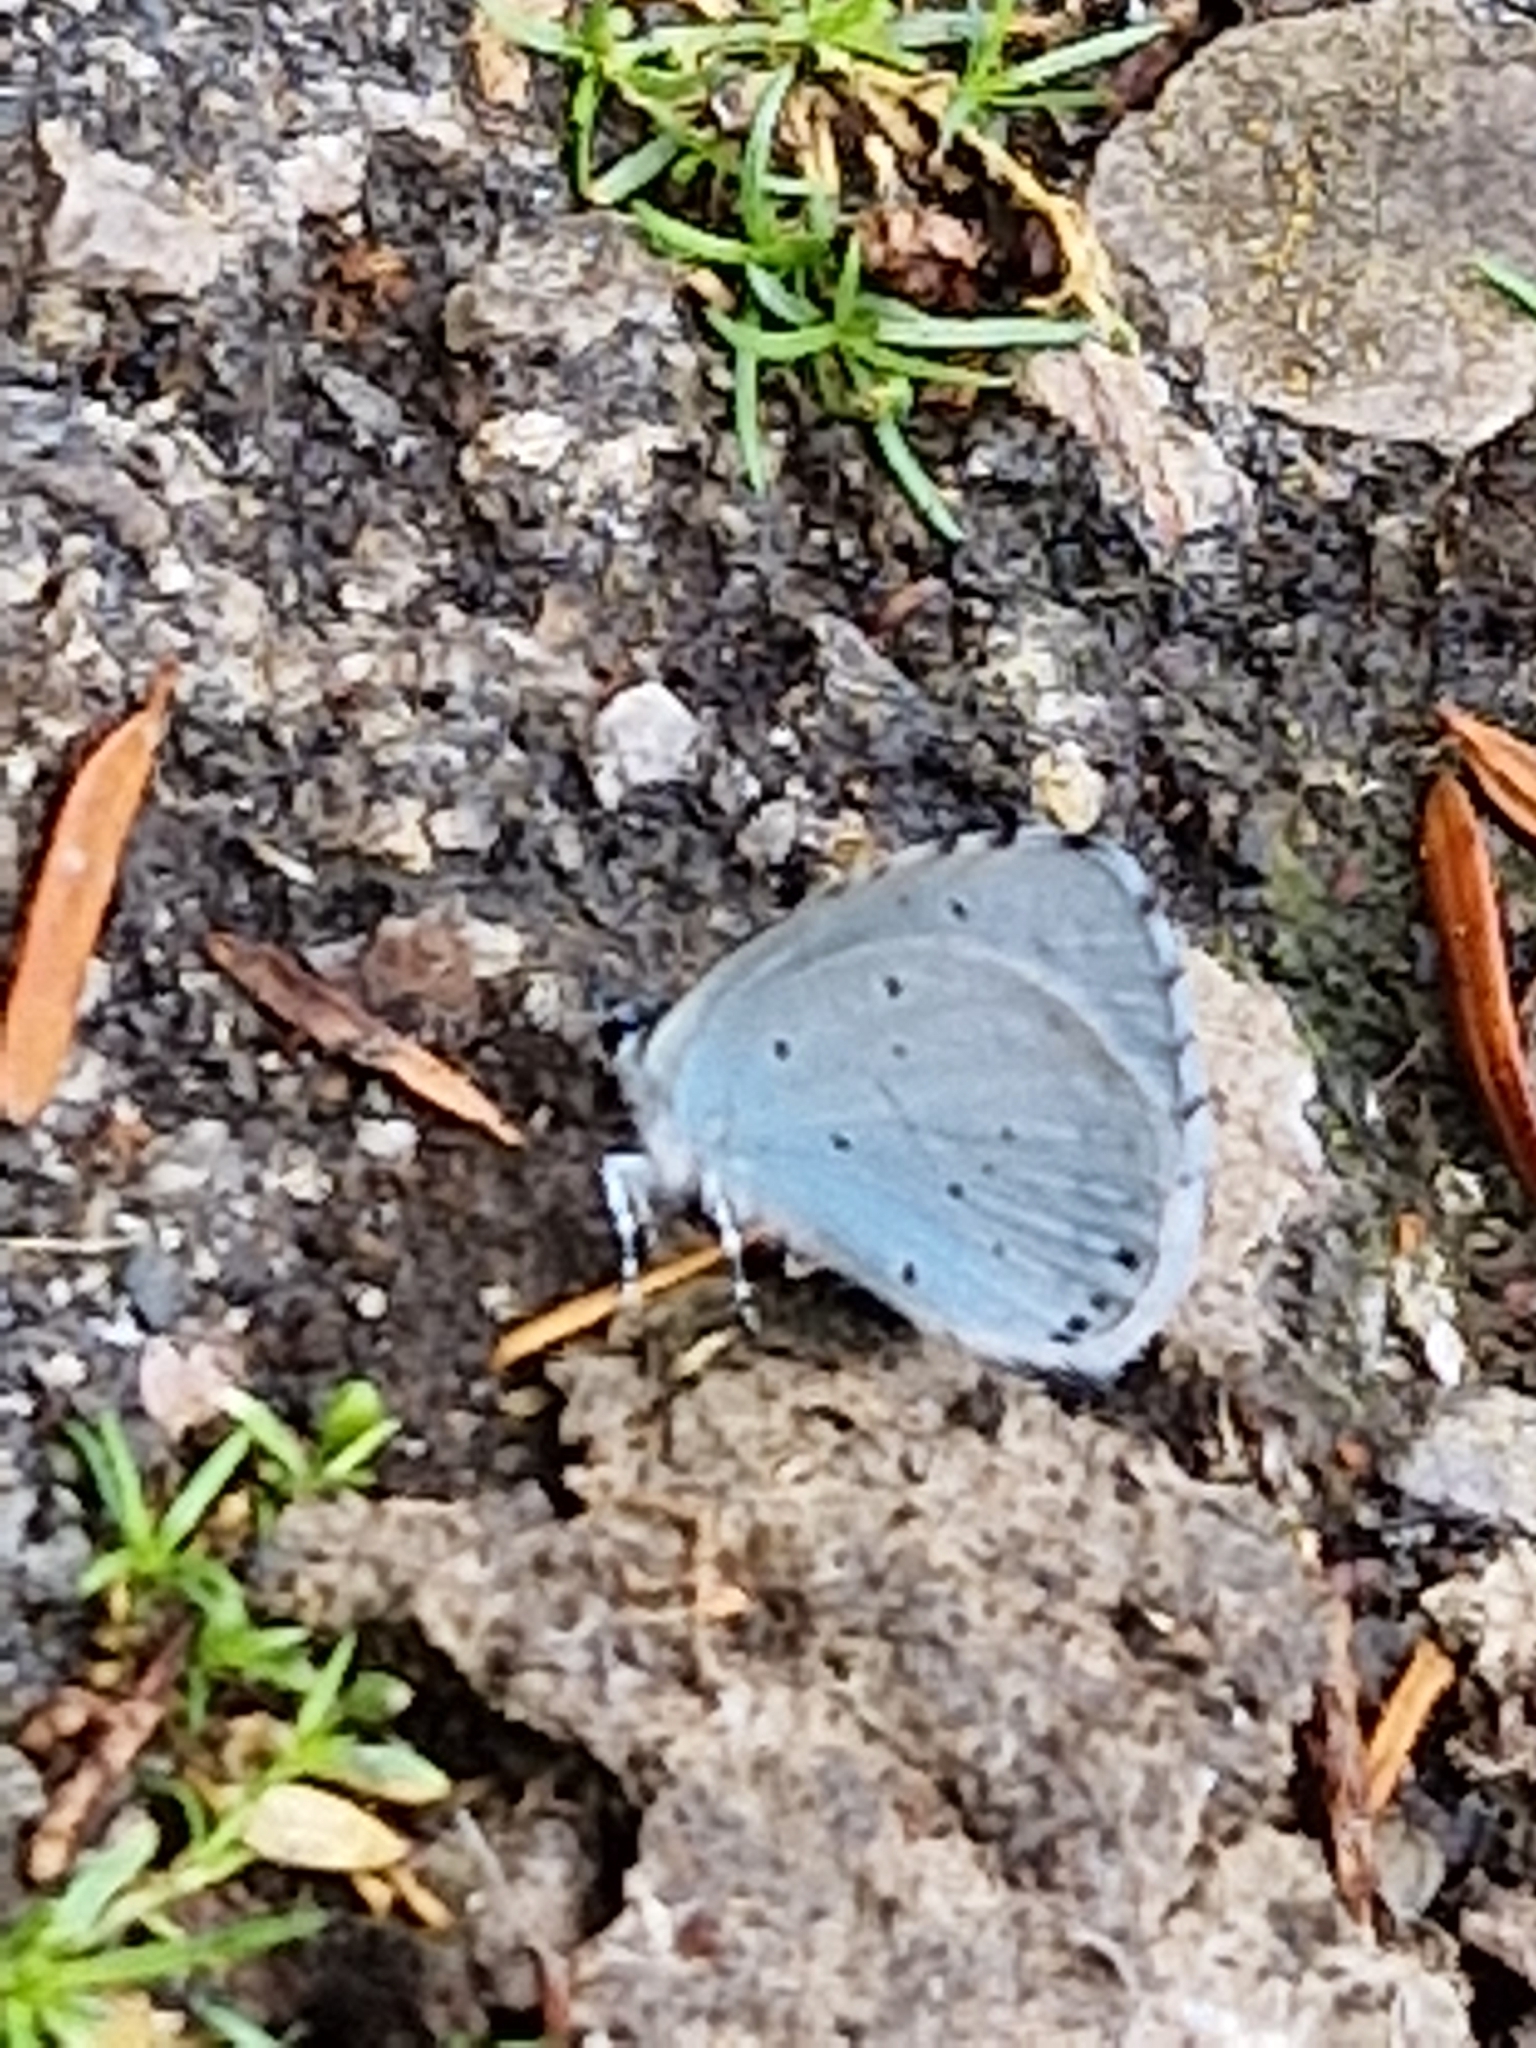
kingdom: Animalia
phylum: Arthropoda
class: Insecta
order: Lepidoptera
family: Lycaenidae
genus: Celastrina
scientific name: Celastrina argiolus
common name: Holly blue
